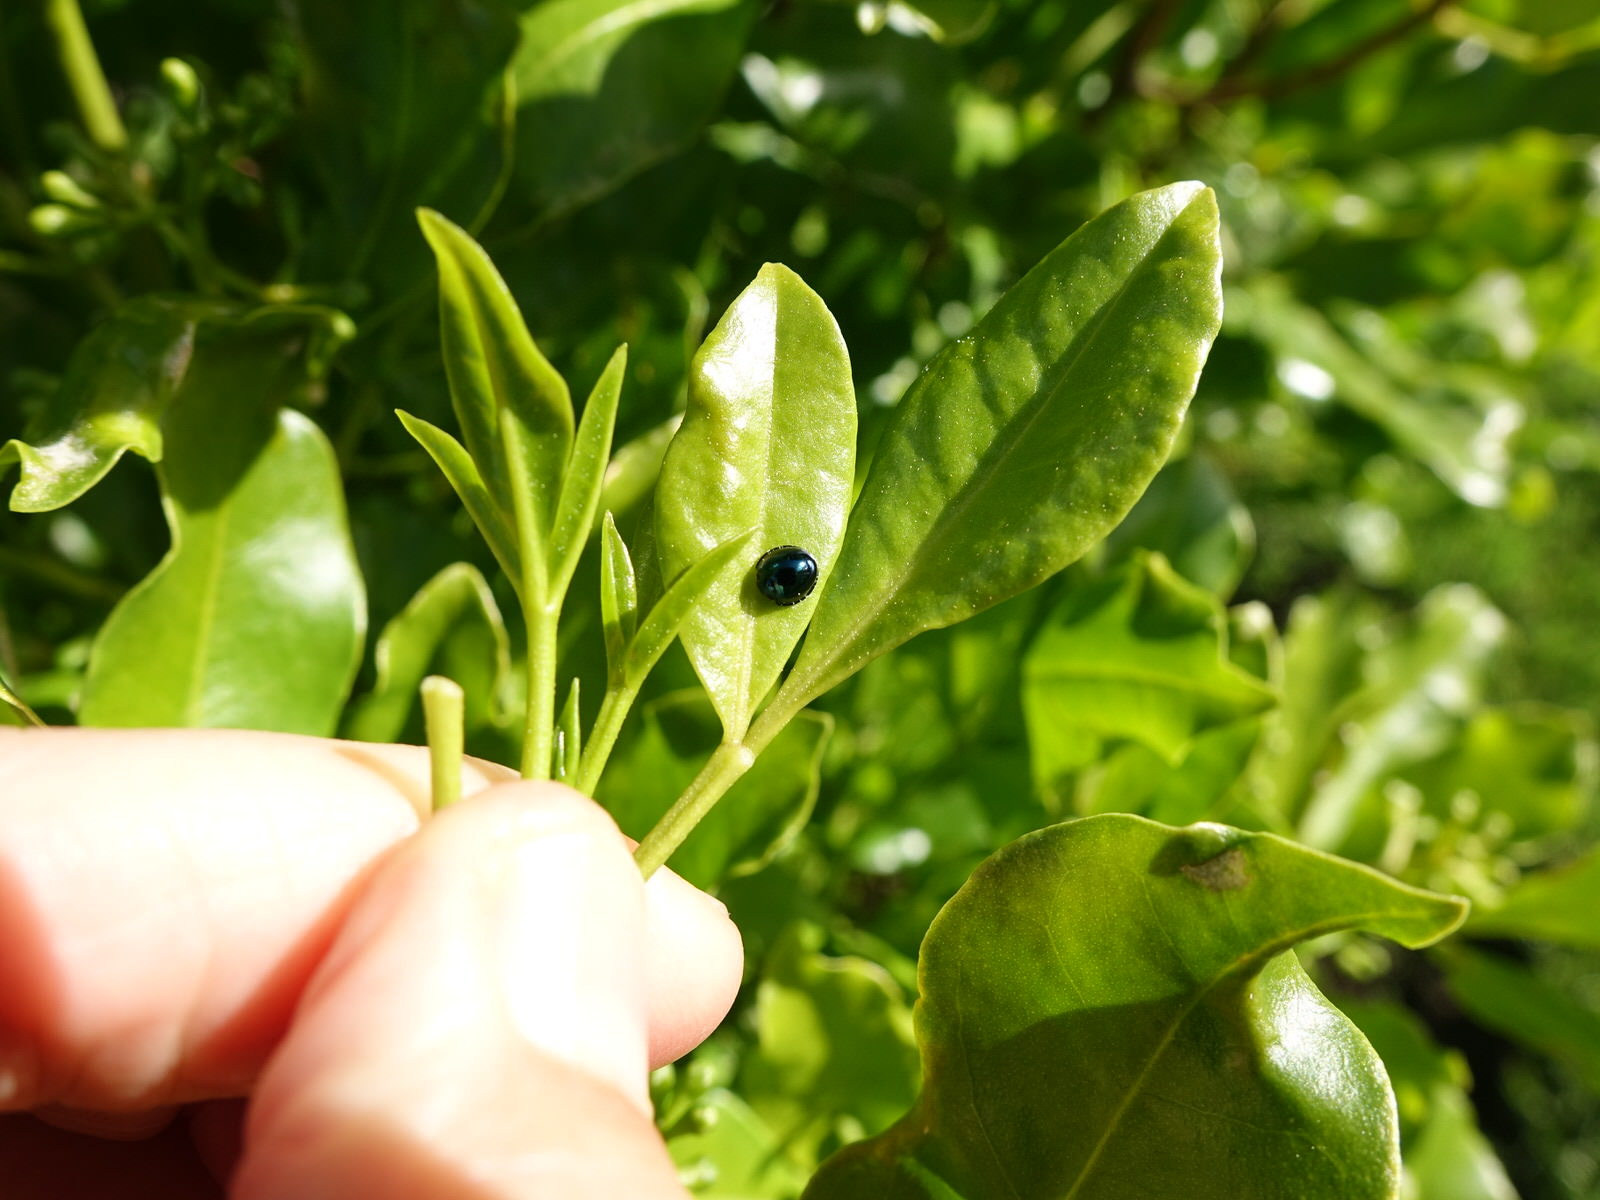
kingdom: Animalia
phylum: Arthropoda
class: Insecta
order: Coleoptera
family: Coccinellidae
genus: Halmus
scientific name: Halmus chalybeus
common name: Steel blue ladybird beetle
